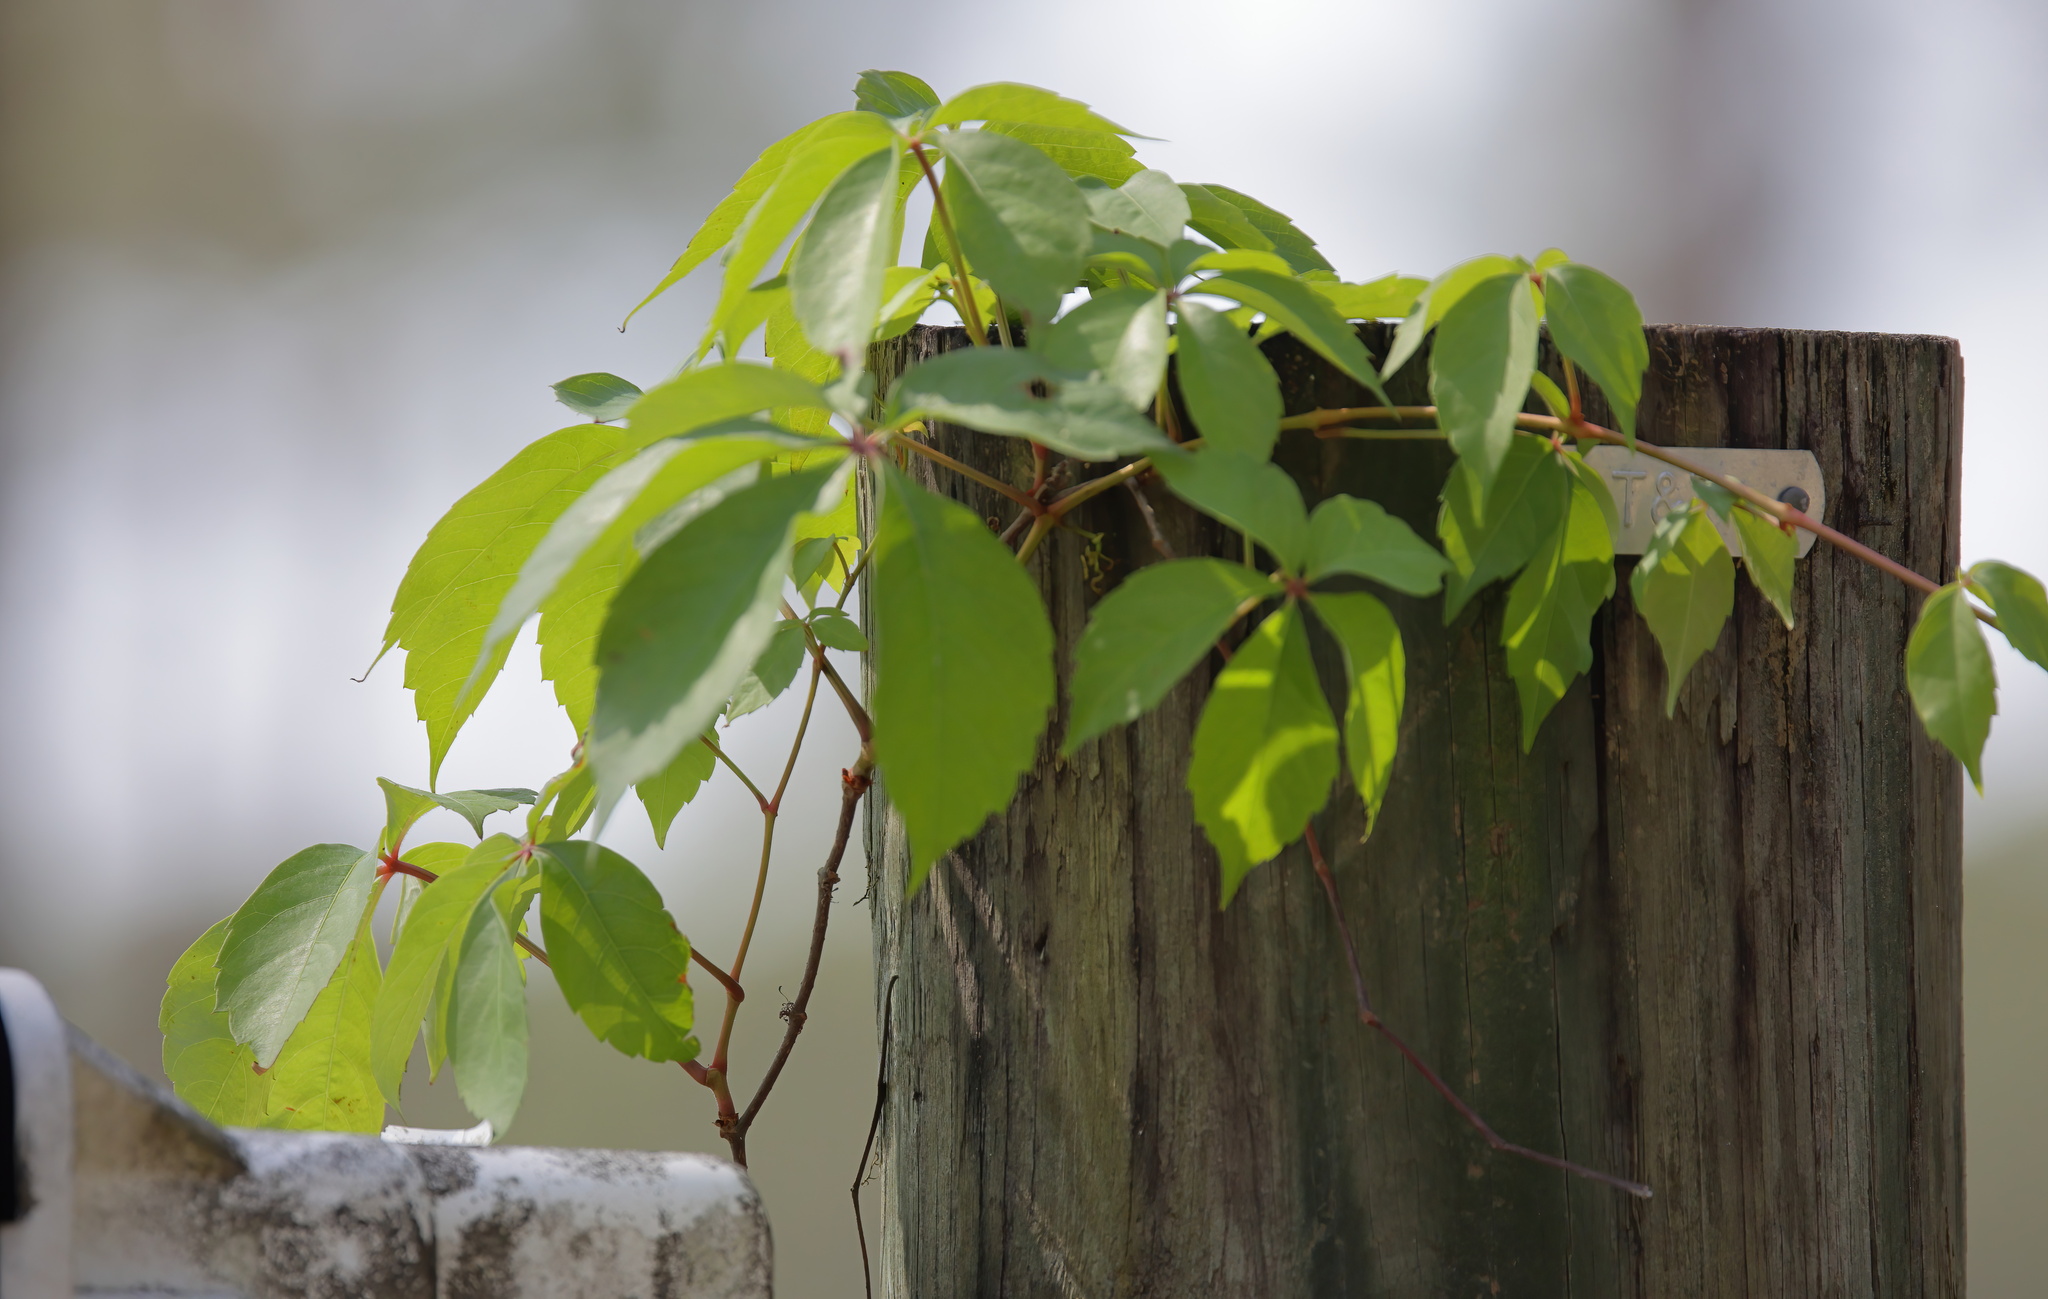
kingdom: Plantae
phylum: Tracheophyta
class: Magnoliopsida
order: Vitales
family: Vitaceae
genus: Parthenocissus
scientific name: Parthenocissus quinquefolia
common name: Virginia-creeper
